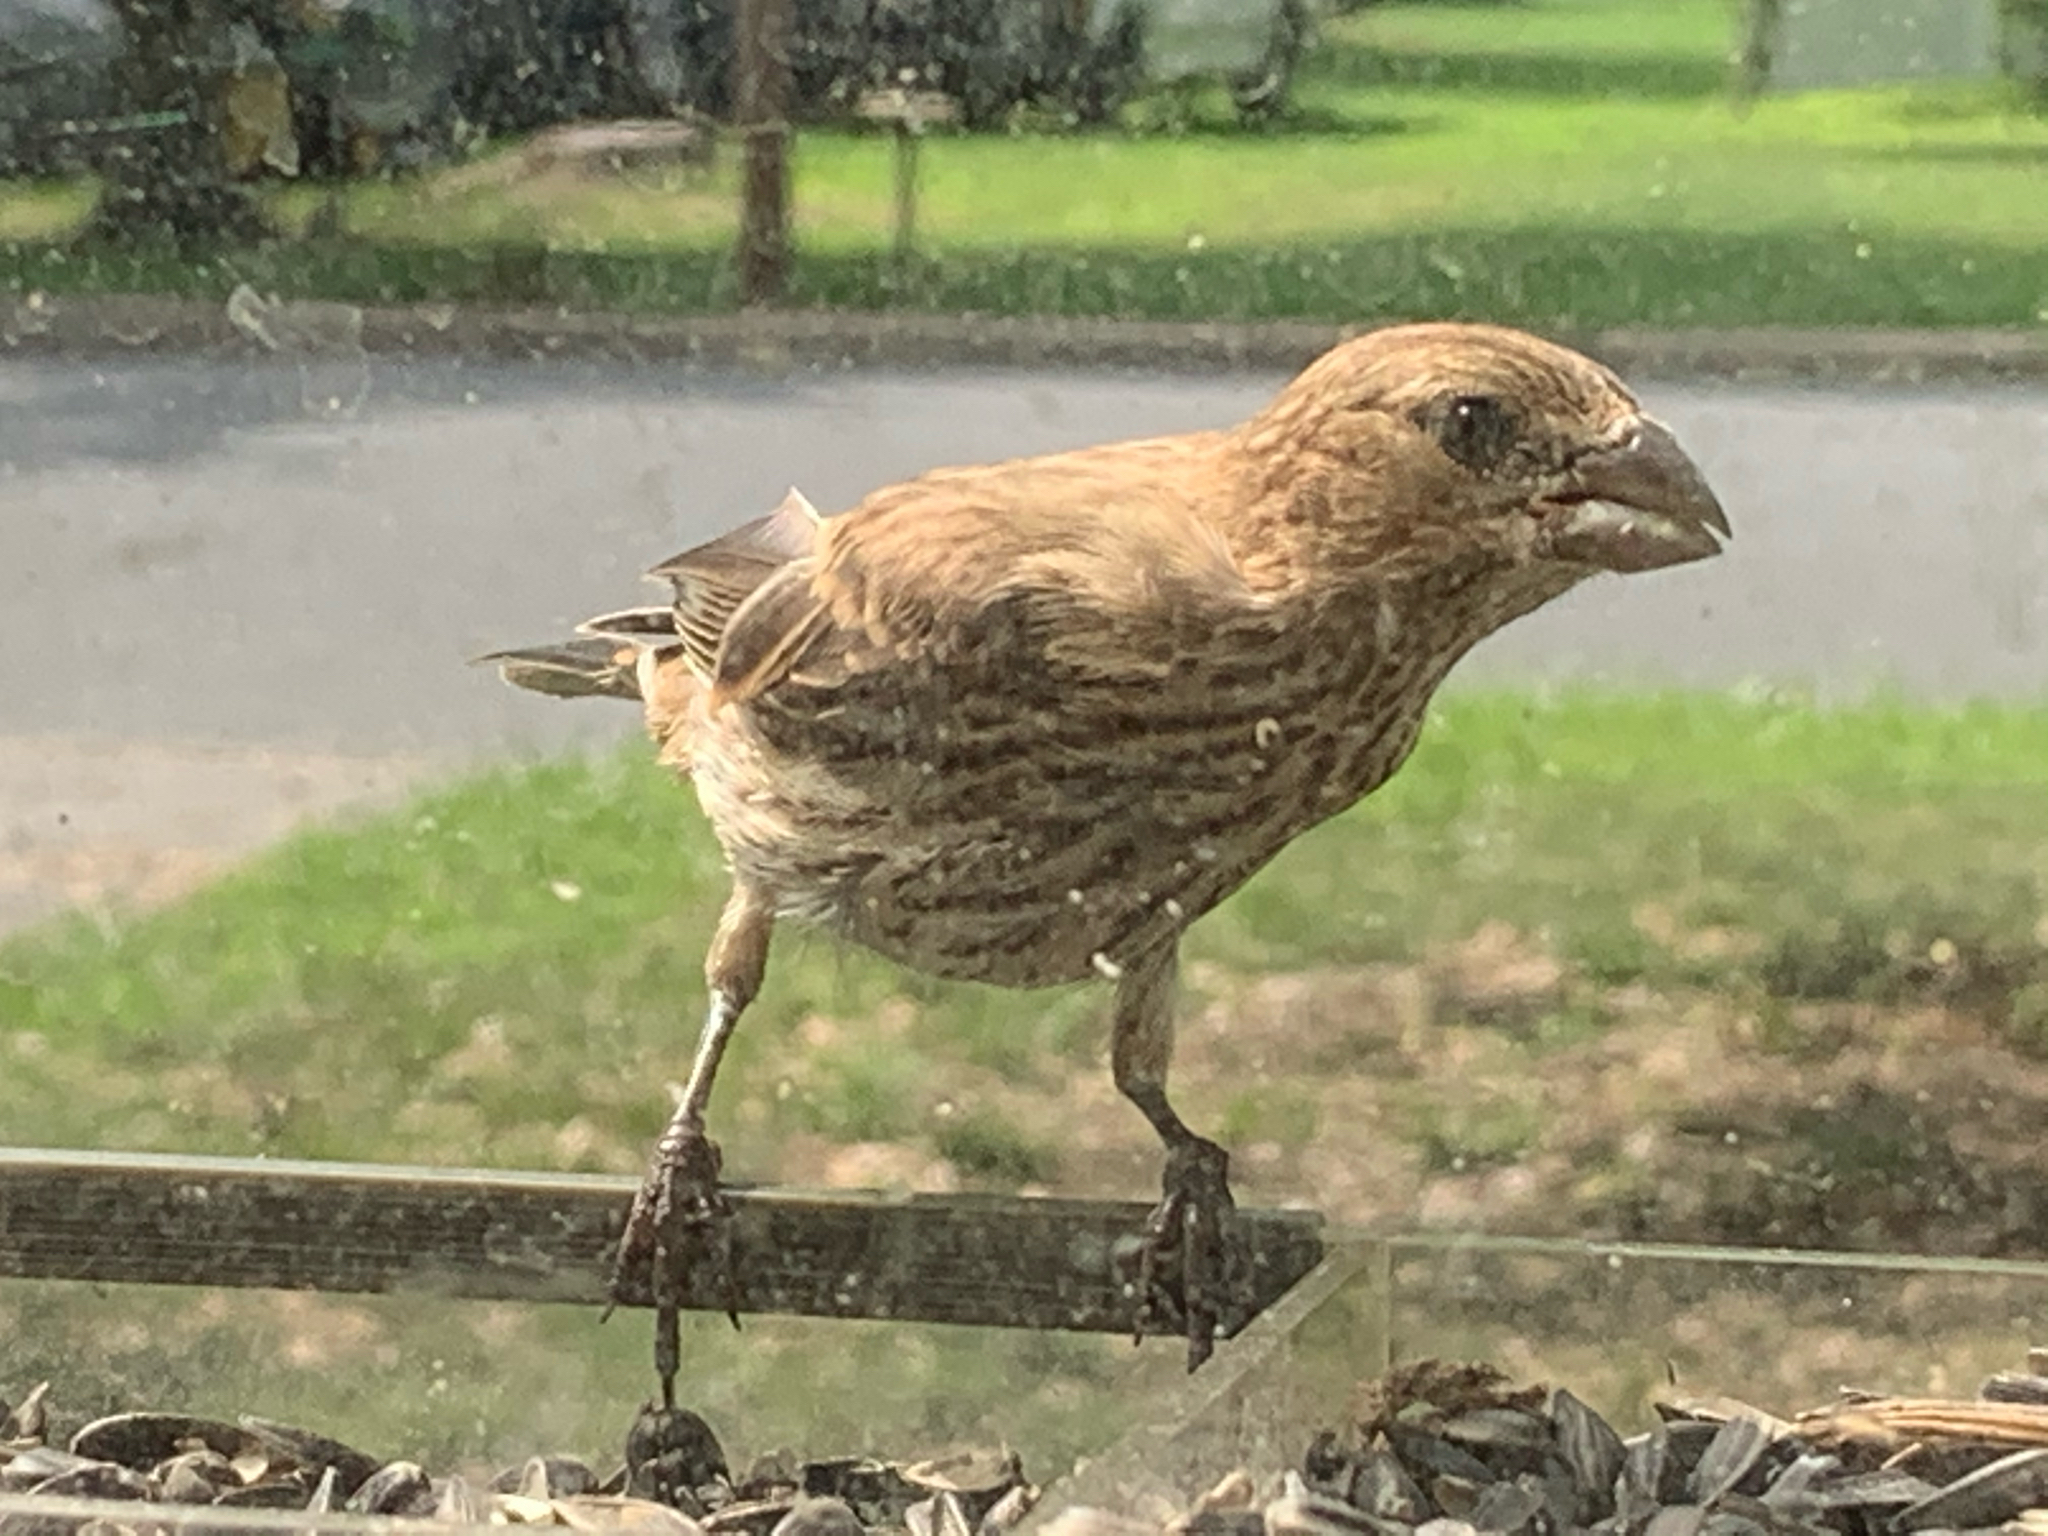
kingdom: Animalia
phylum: Chordata
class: Aves
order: Passeriformes
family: Fringillidae
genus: Haemorhous
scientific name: Haemorhous mexicanus
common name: House finch
